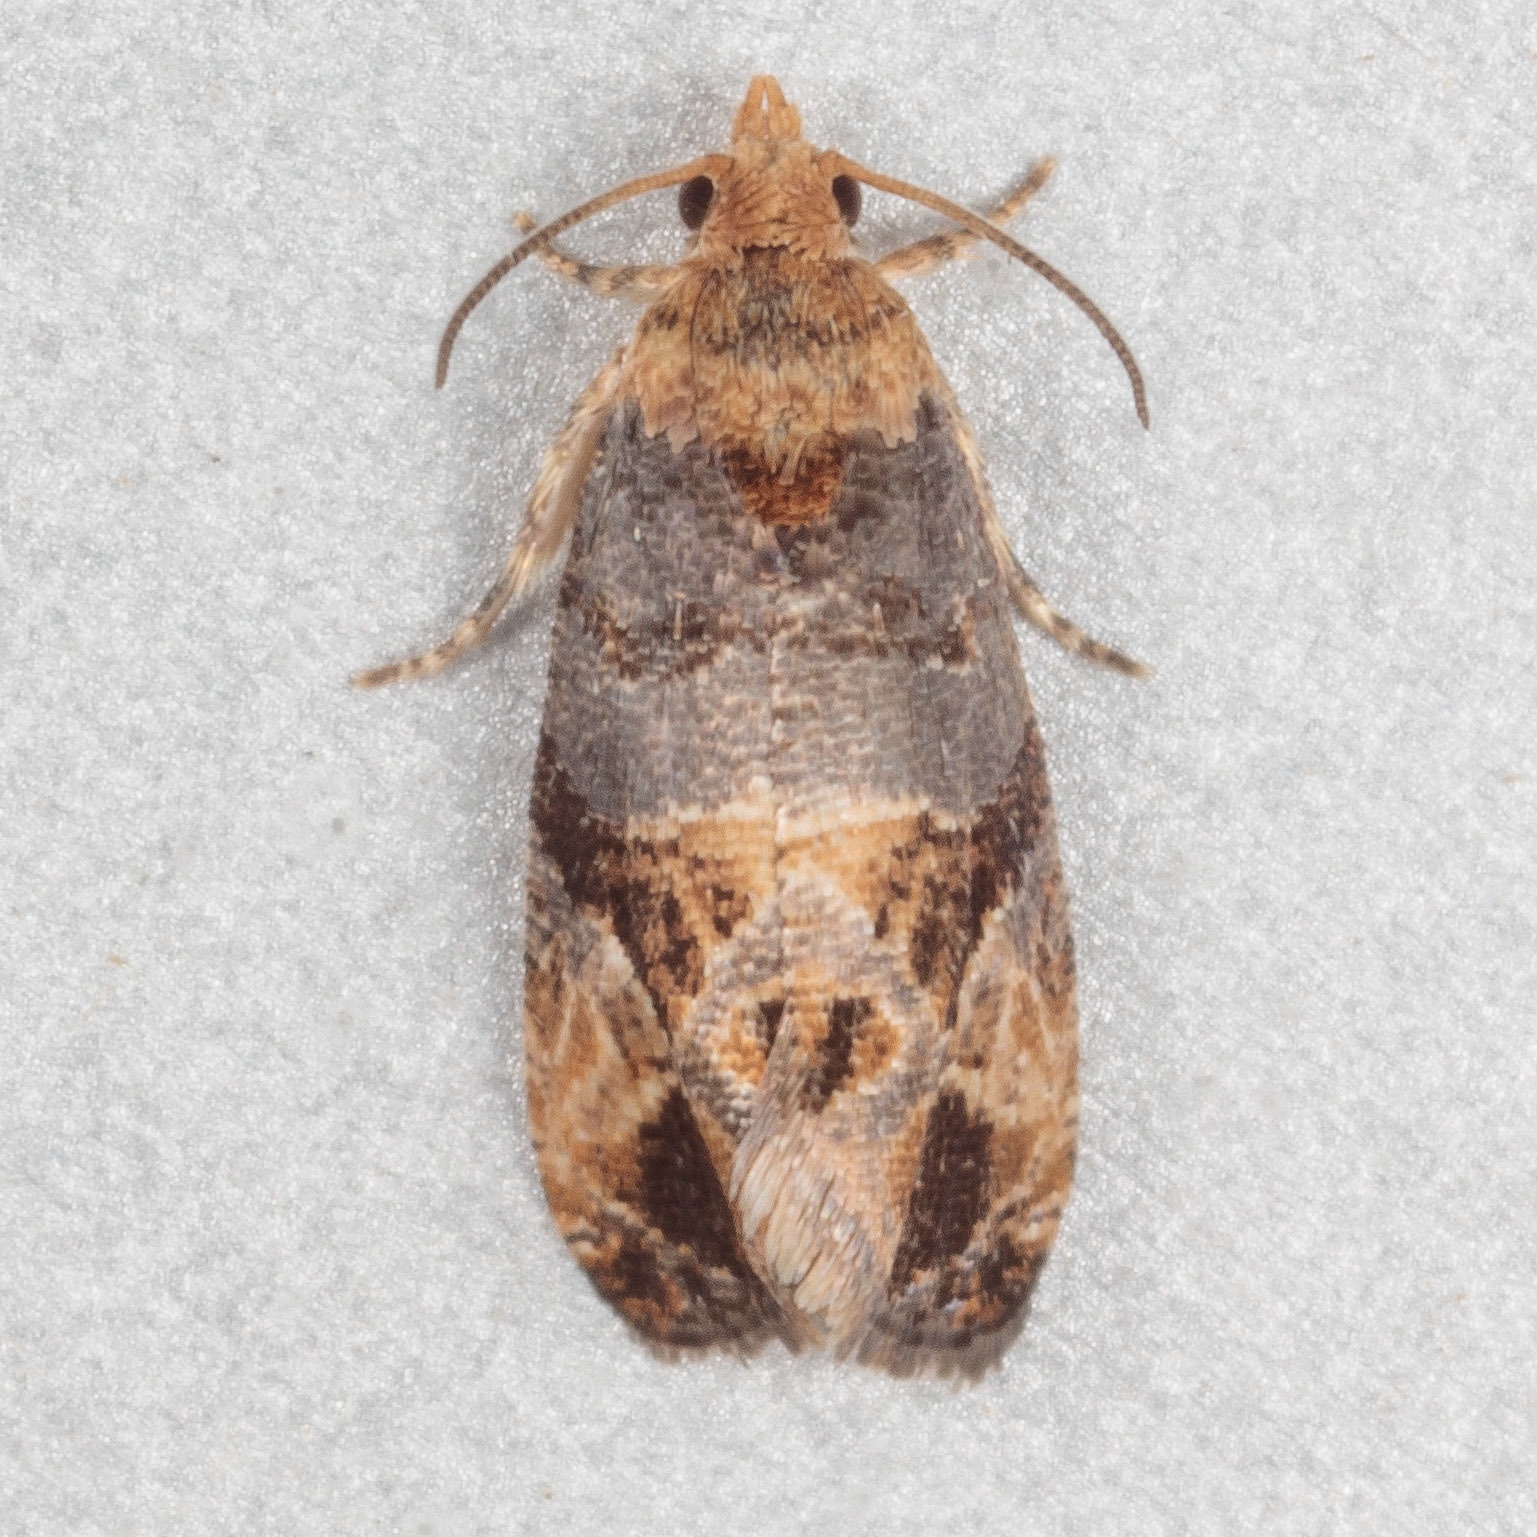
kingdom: Animalia
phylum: Arthropoda
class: Insecta
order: Lepidoptera
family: Tortricidae
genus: Paralobesia
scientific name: Paralobesia viteana
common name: Grape berry moth
